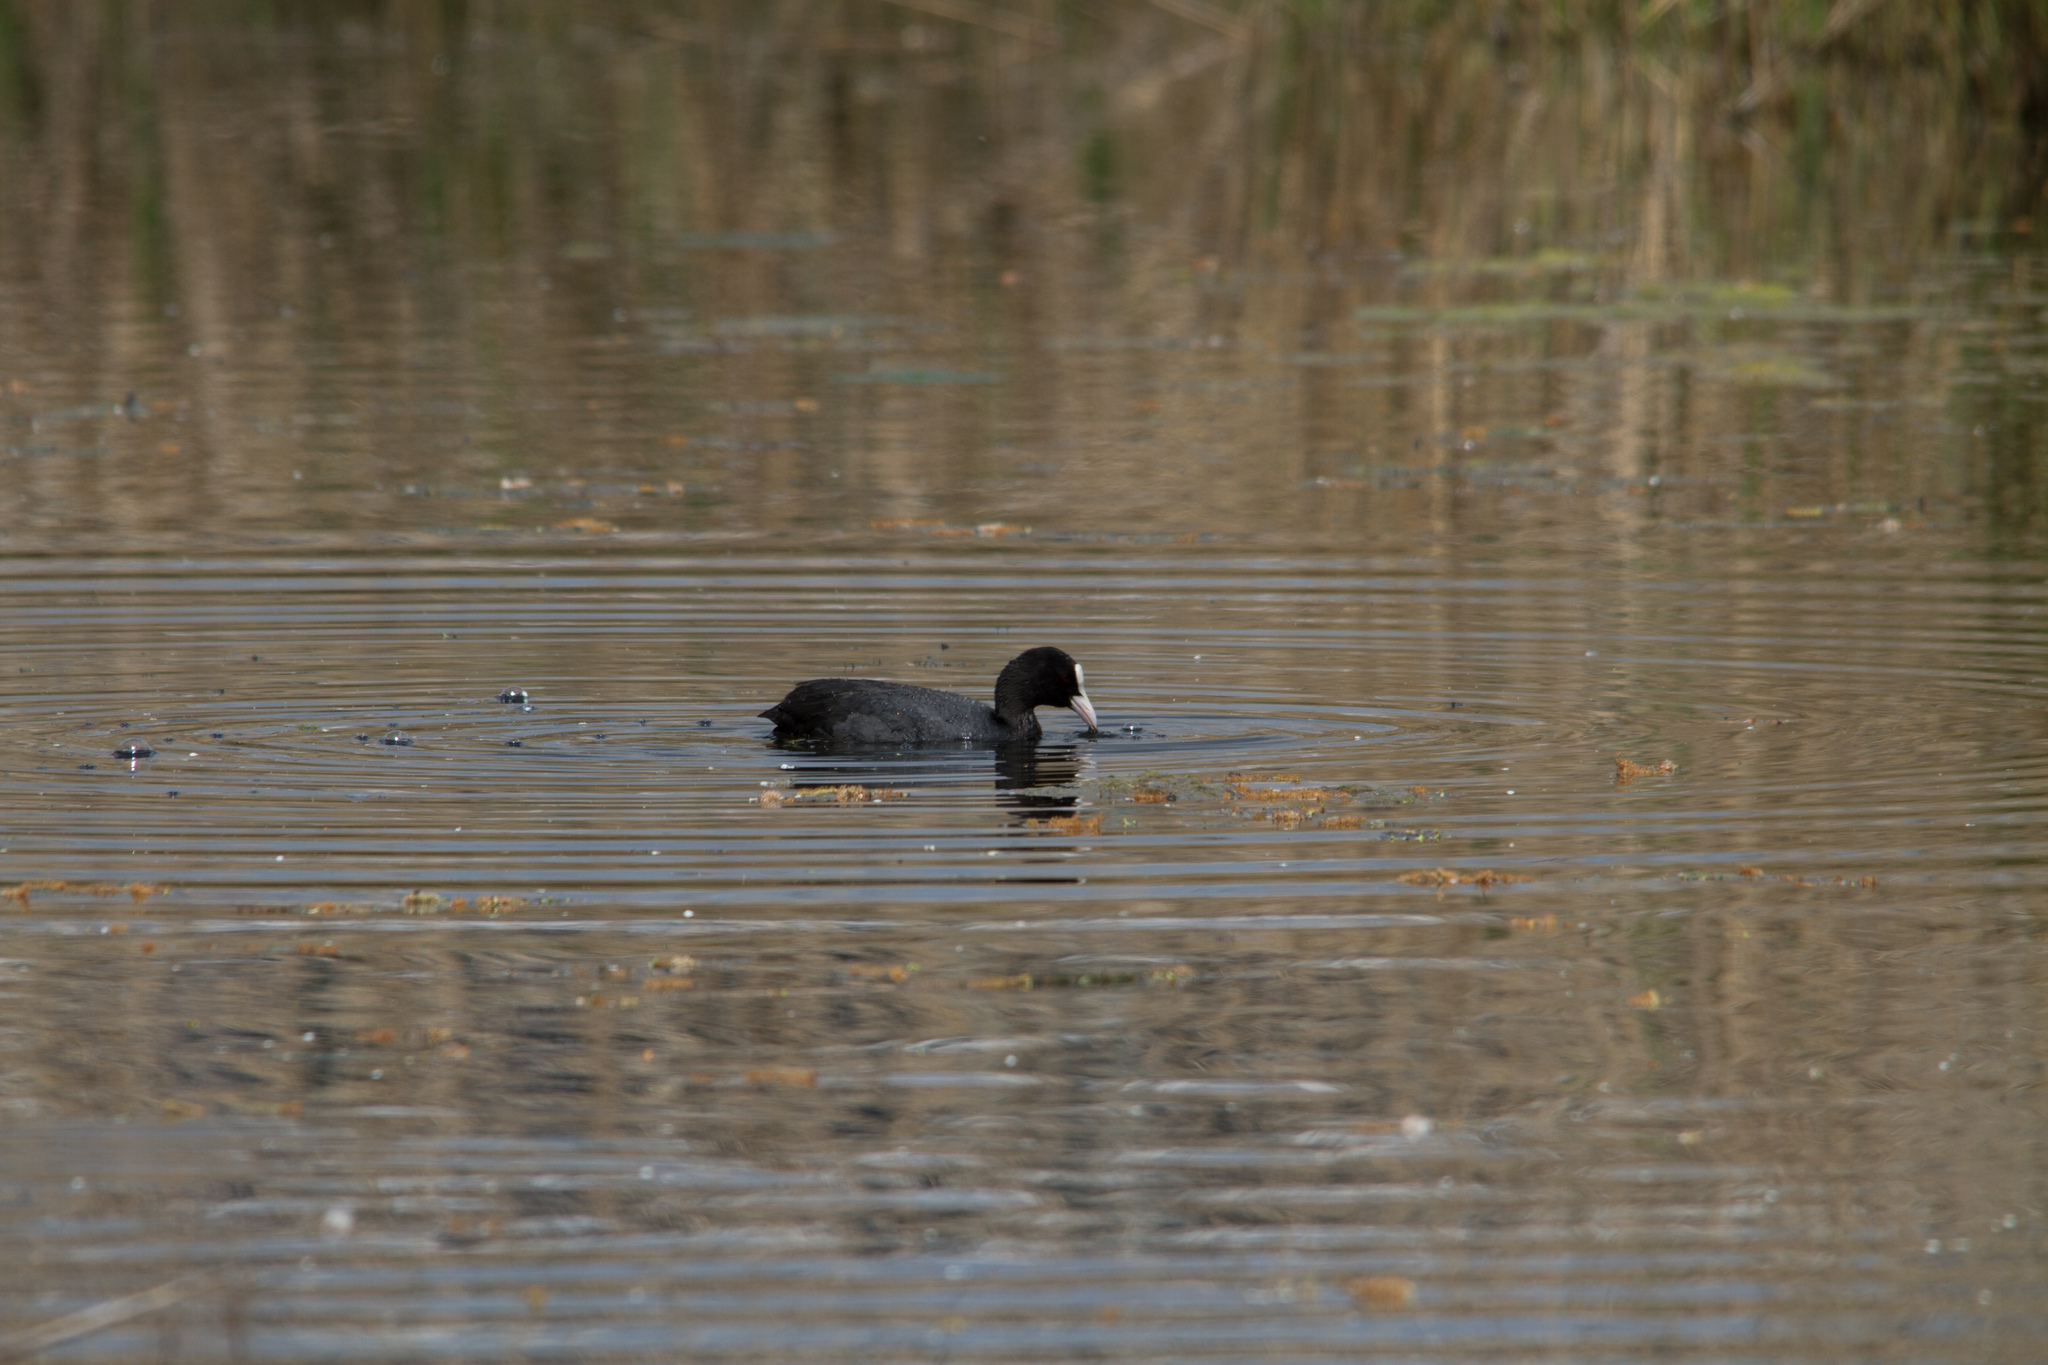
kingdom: Animalia
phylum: Chordata
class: Aves
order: Gruiformes
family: Rallidae
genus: Fulica
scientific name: Fulica atra
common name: Eurasian coot
